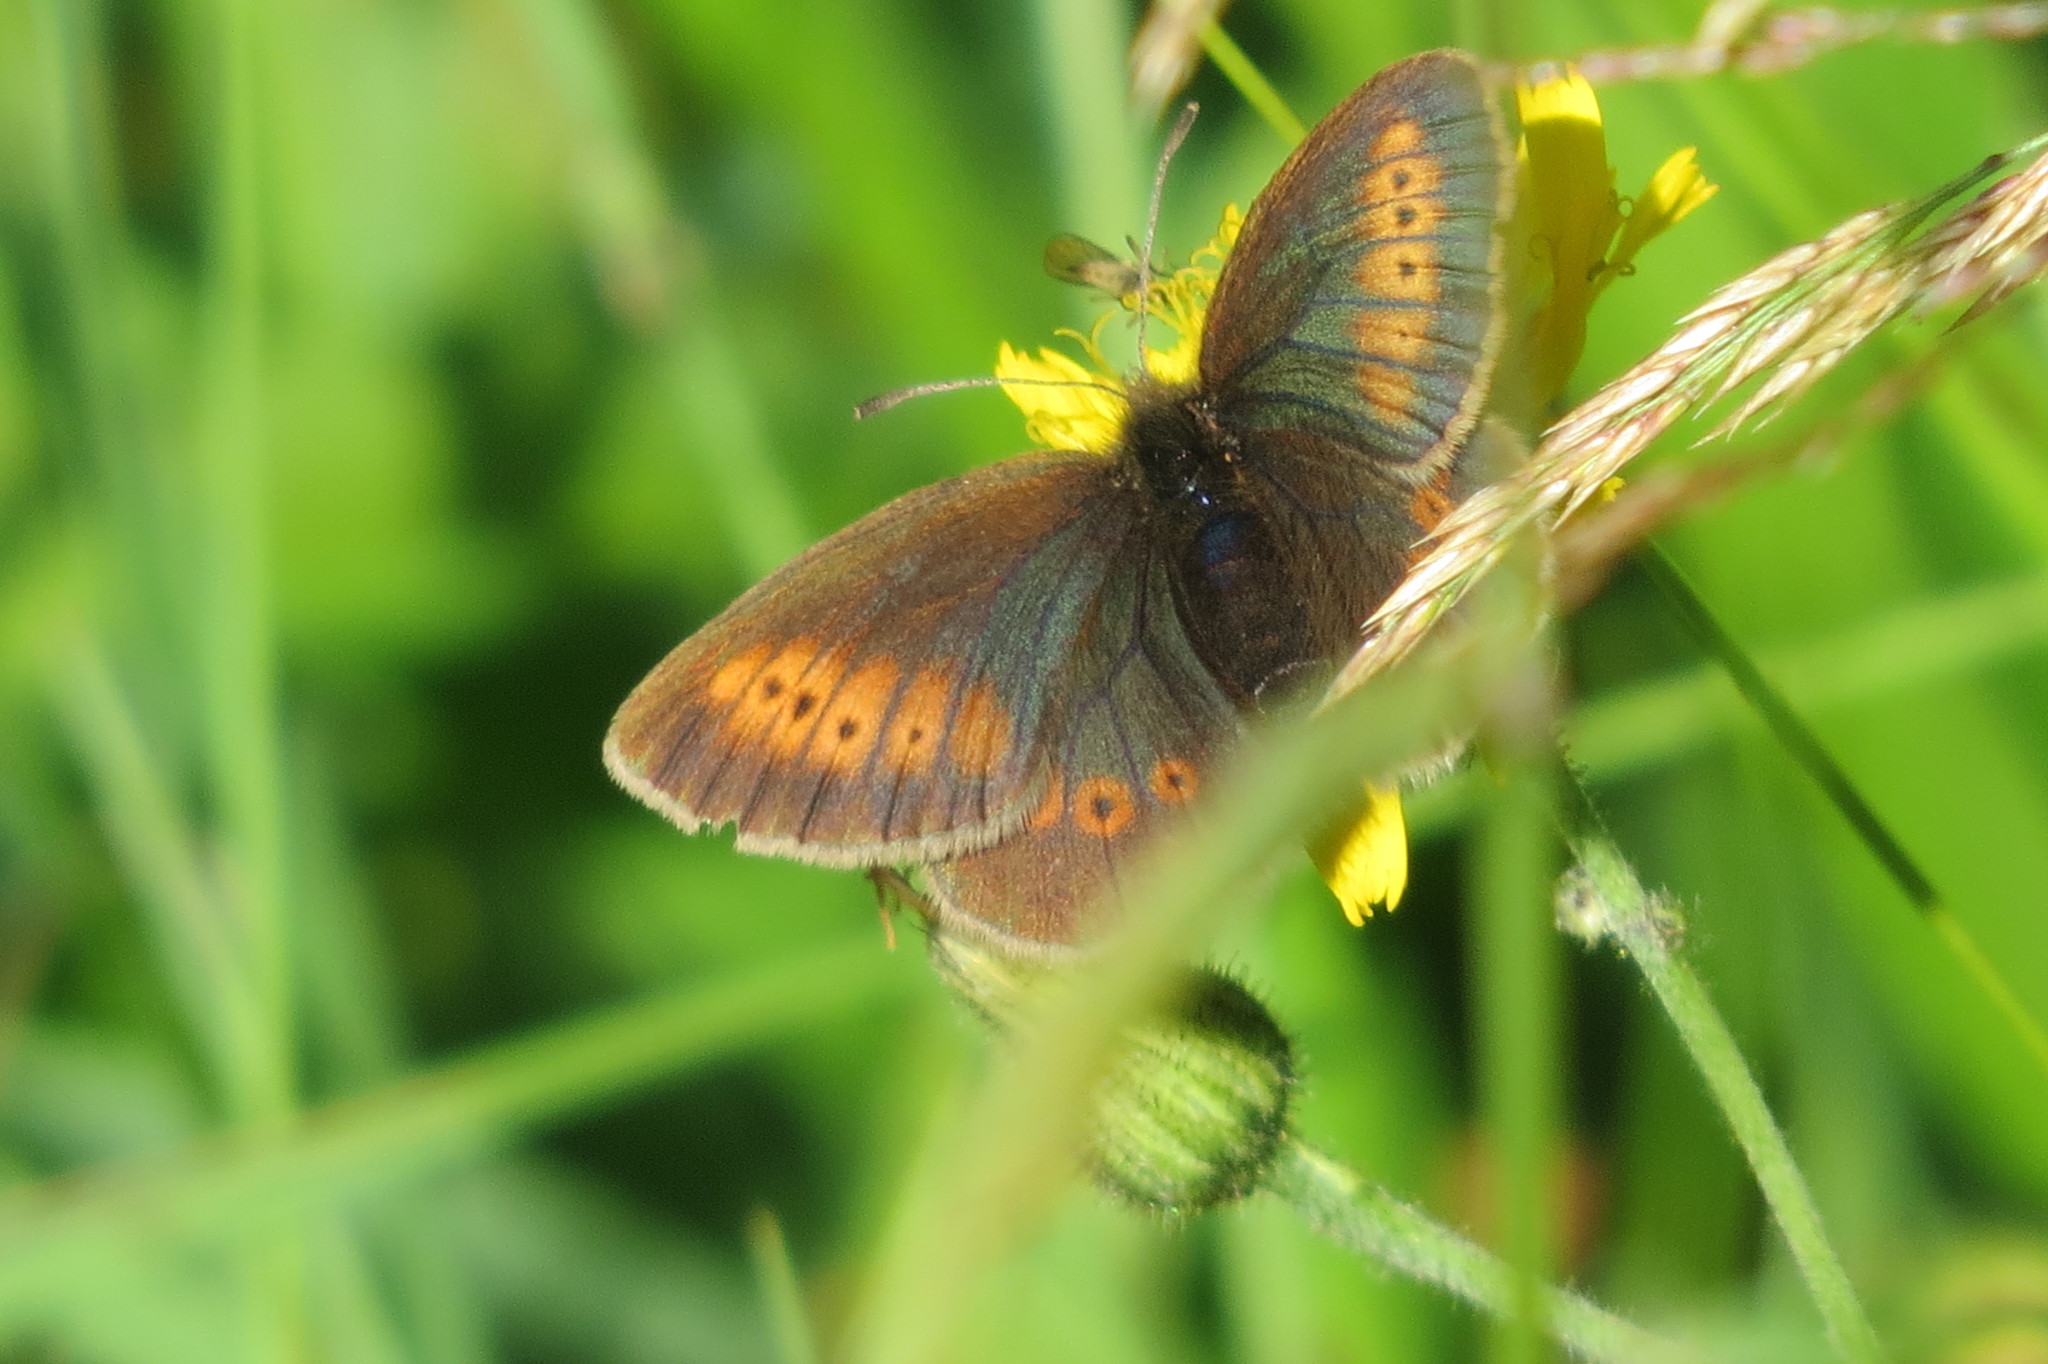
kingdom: Animalia
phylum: Arthropoda
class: Insecta
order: Lepidoptera
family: Nymphalidae
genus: Erebia
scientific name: Erebia melampus
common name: Lesser mountain ringlet
